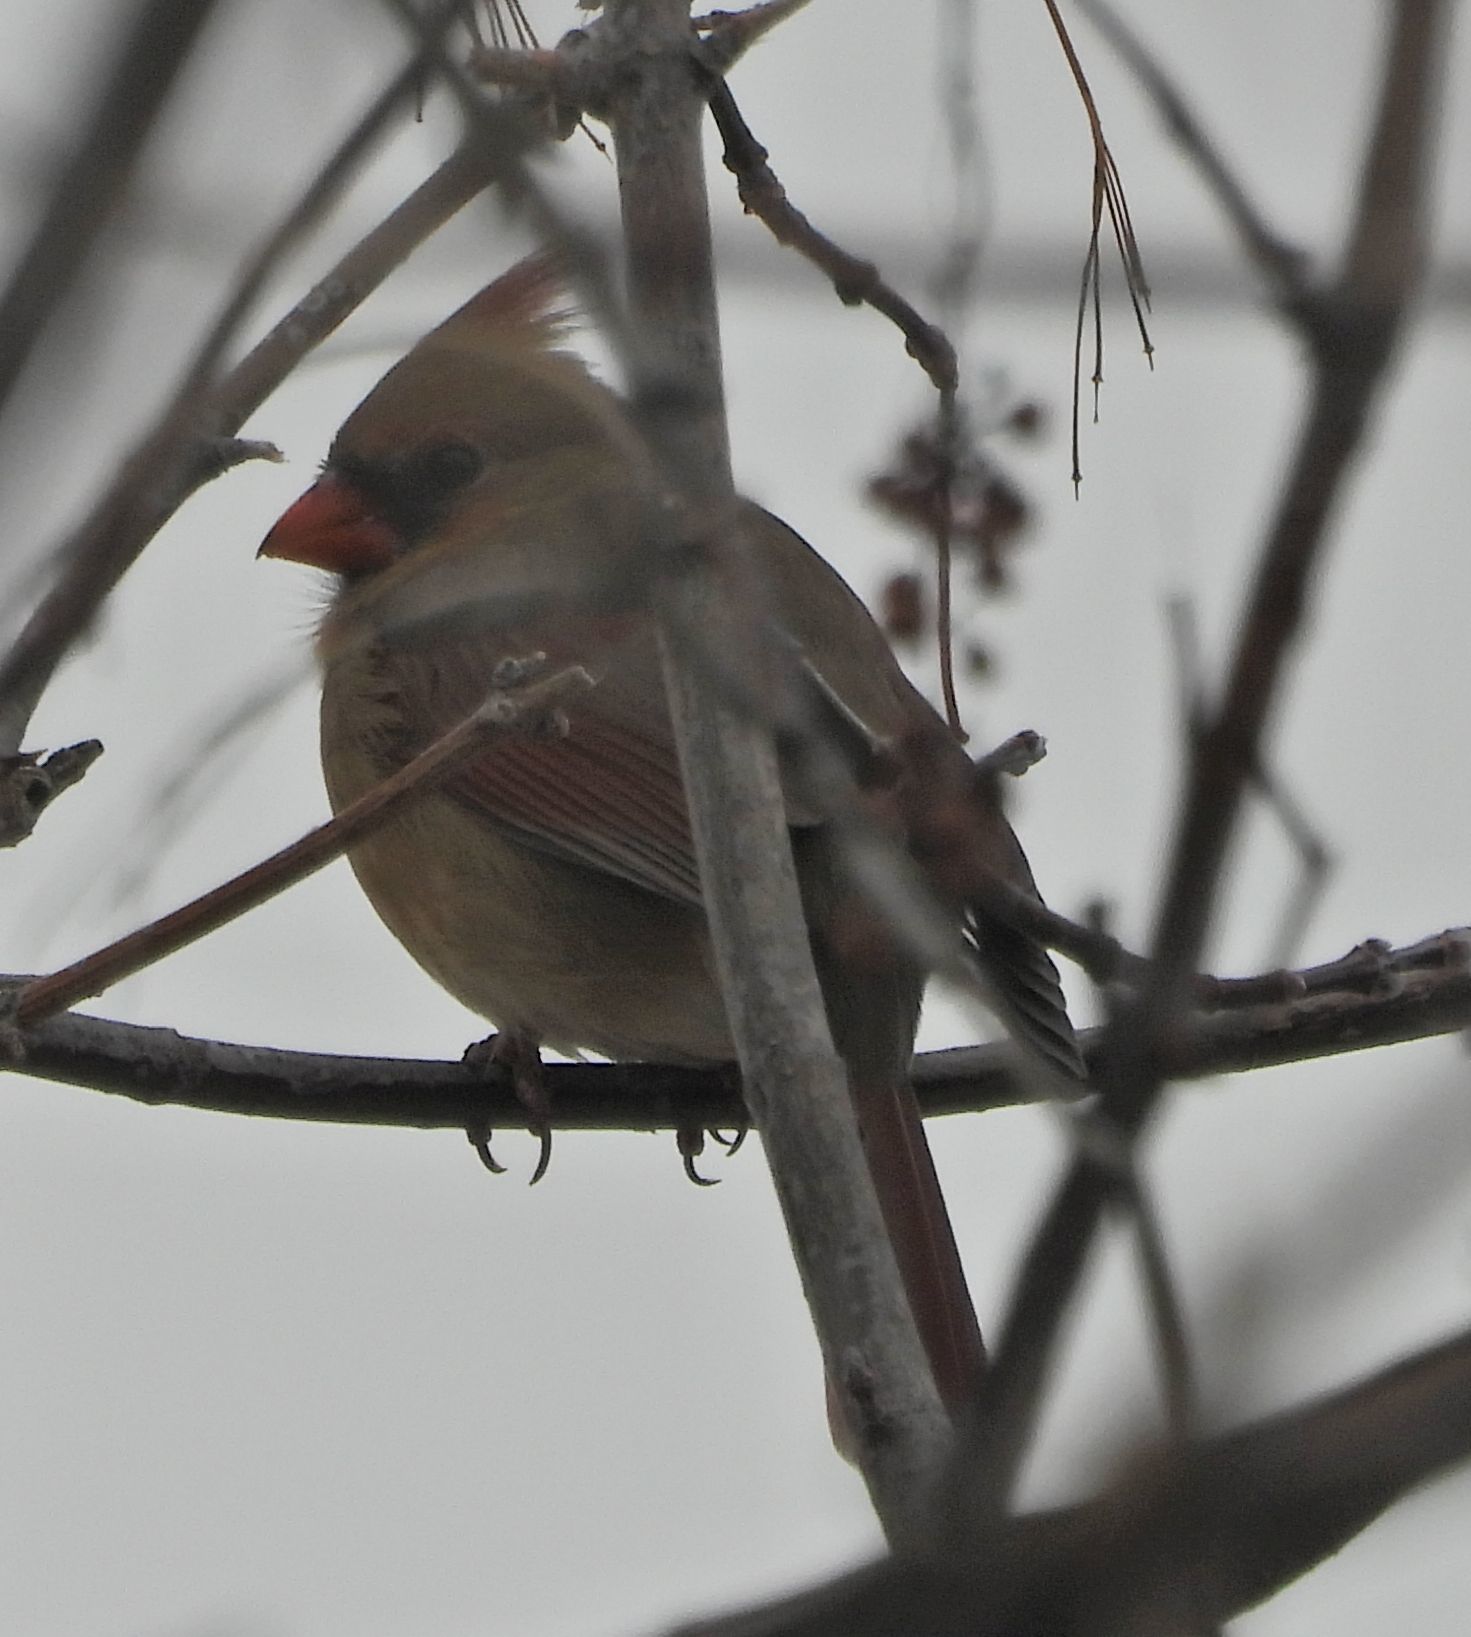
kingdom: Animalia
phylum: Chordata
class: Aves
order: Passeriformes
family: Cardinalidae
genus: Cardinalis
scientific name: Cardinalis cardinalis
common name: Northern cardinal
